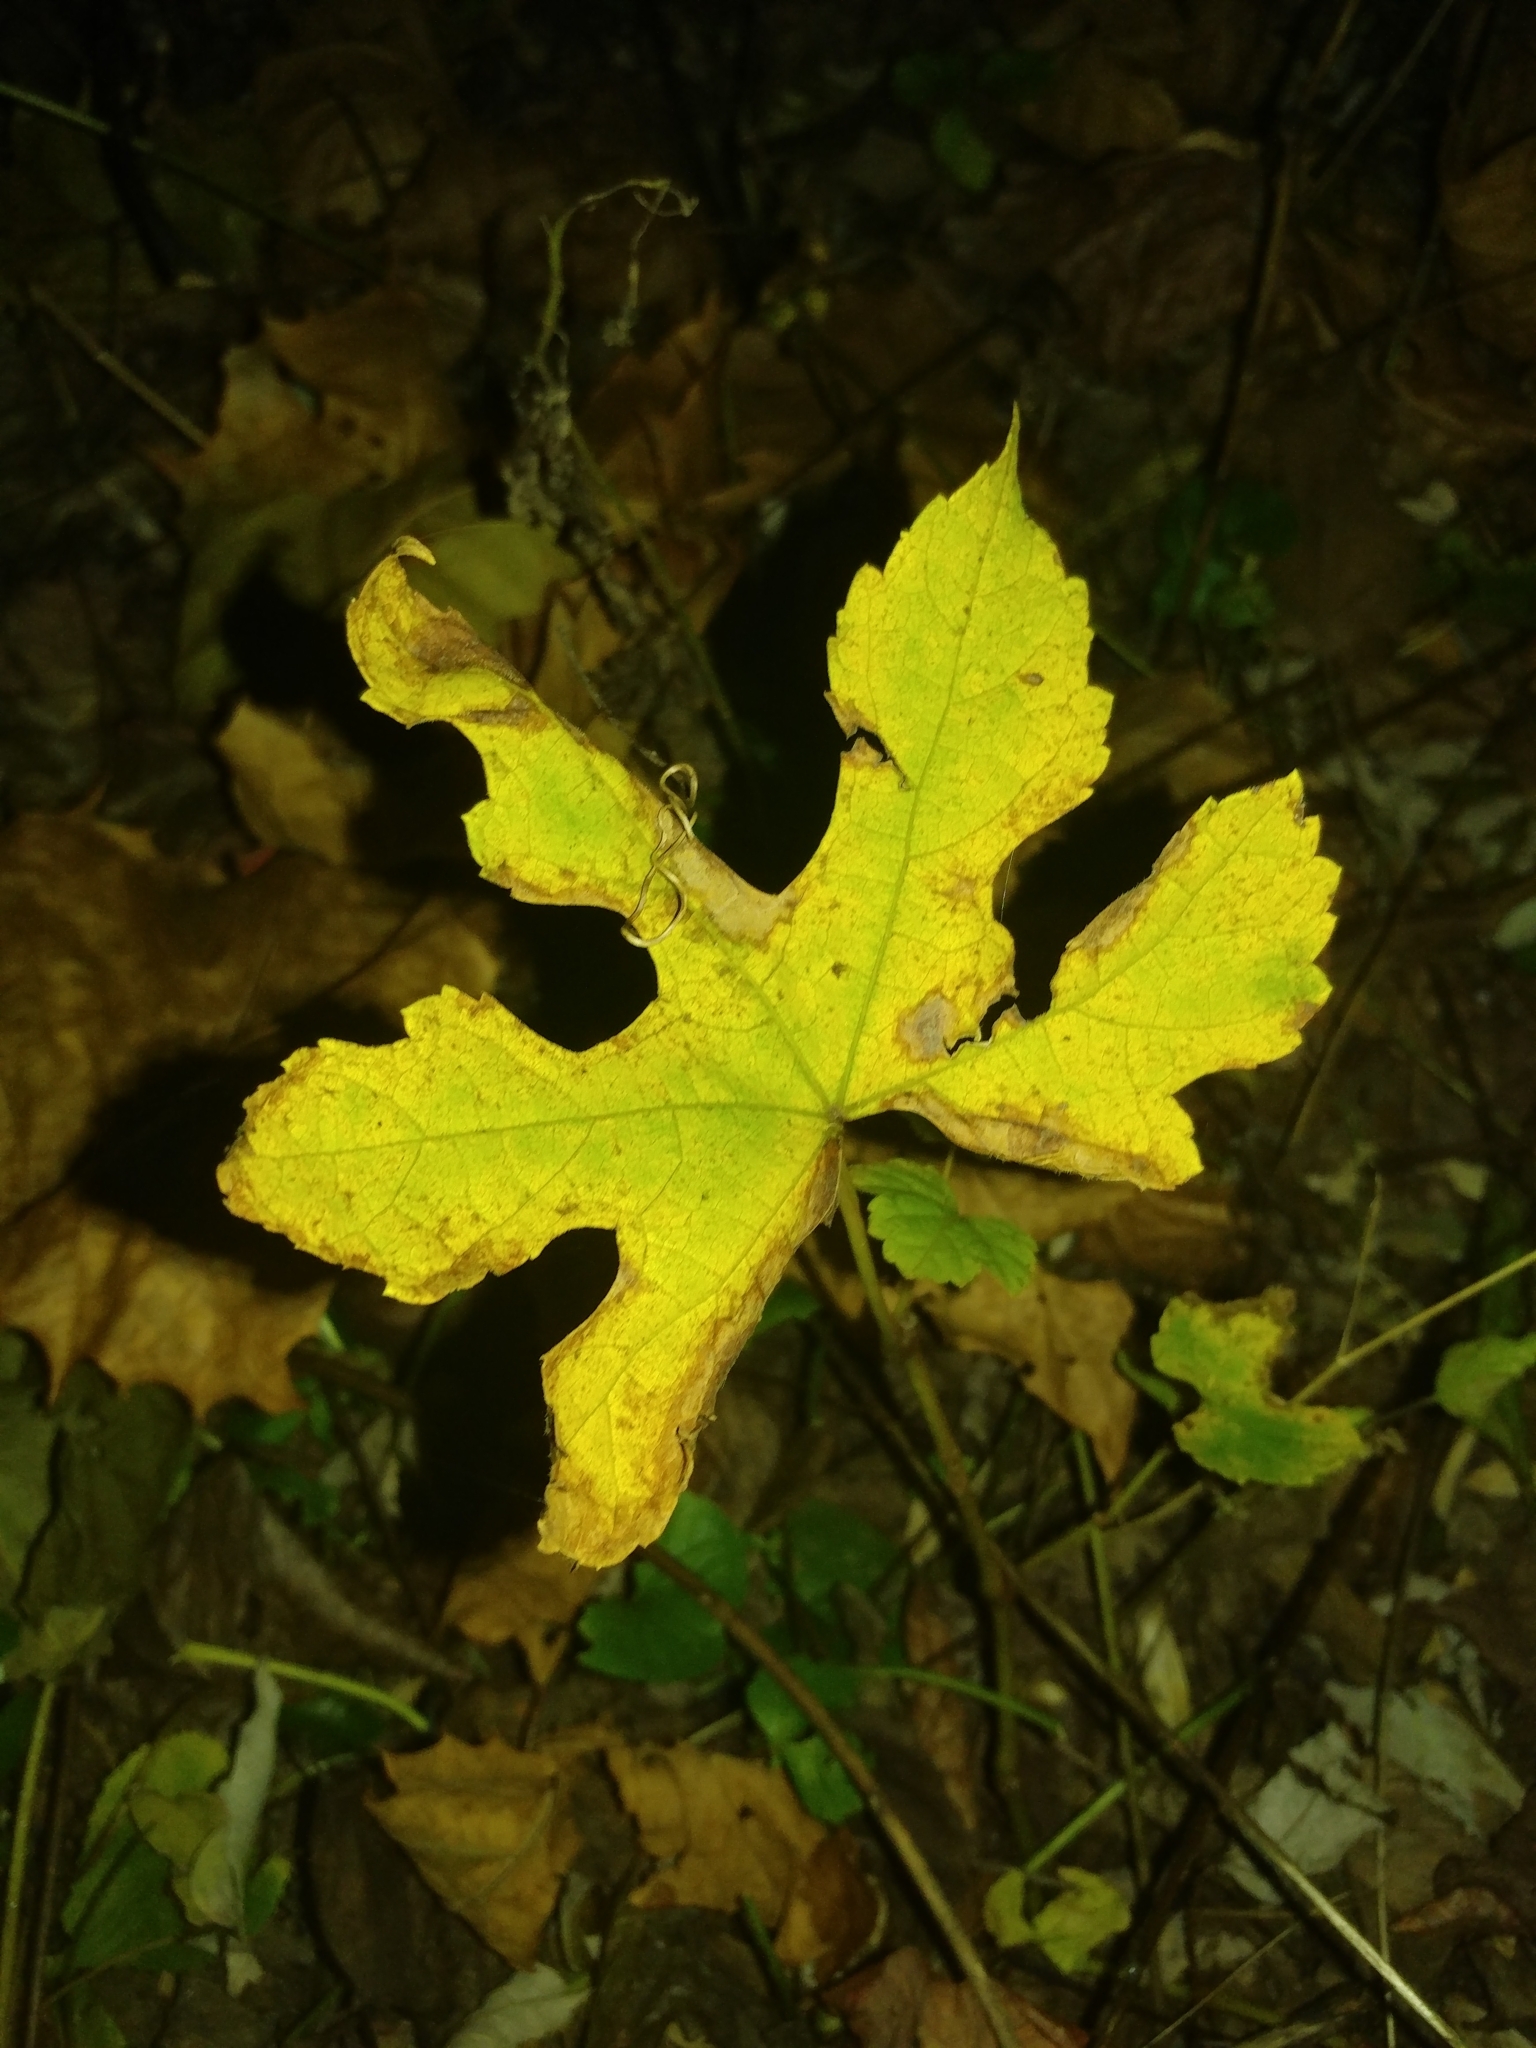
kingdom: Plantae
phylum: Tracheophyta
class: Magnoliopsida
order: Vitales
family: Vitaceae
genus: Ampelopsis
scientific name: Ampelopsis glandulosa
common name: Amur peppervine
